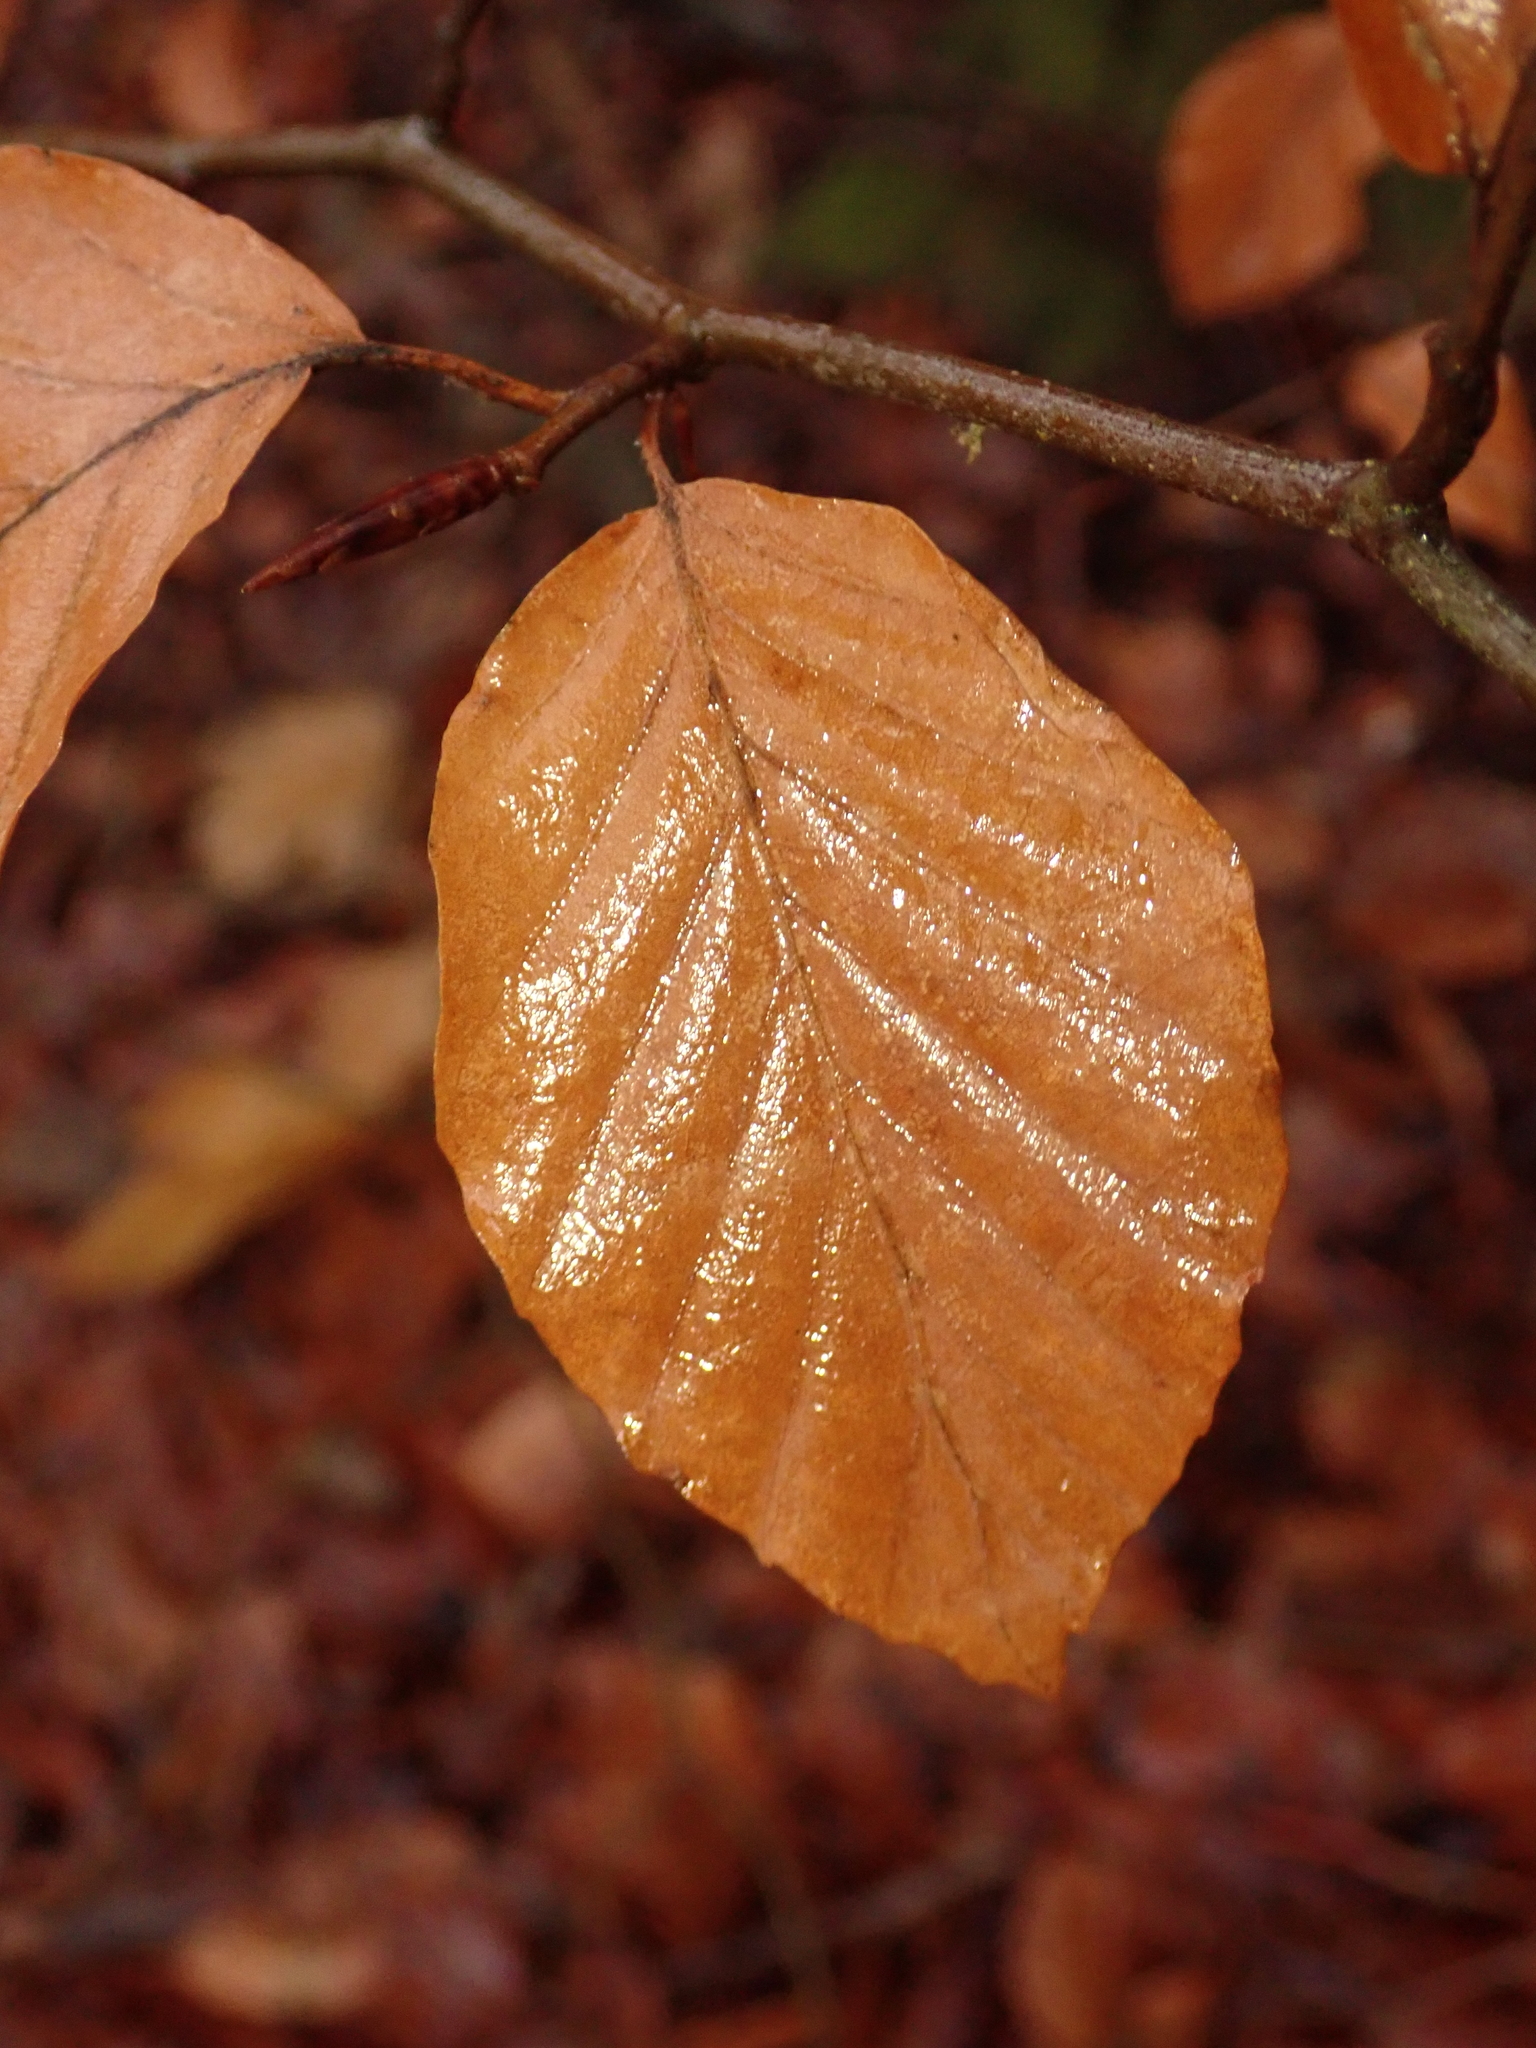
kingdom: Plantae
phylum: Tracheophyta
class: Magnoliopsida
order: Fagales
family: Fagaceae
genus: Fagus
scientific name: Fagus sylvatica
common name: Beech
